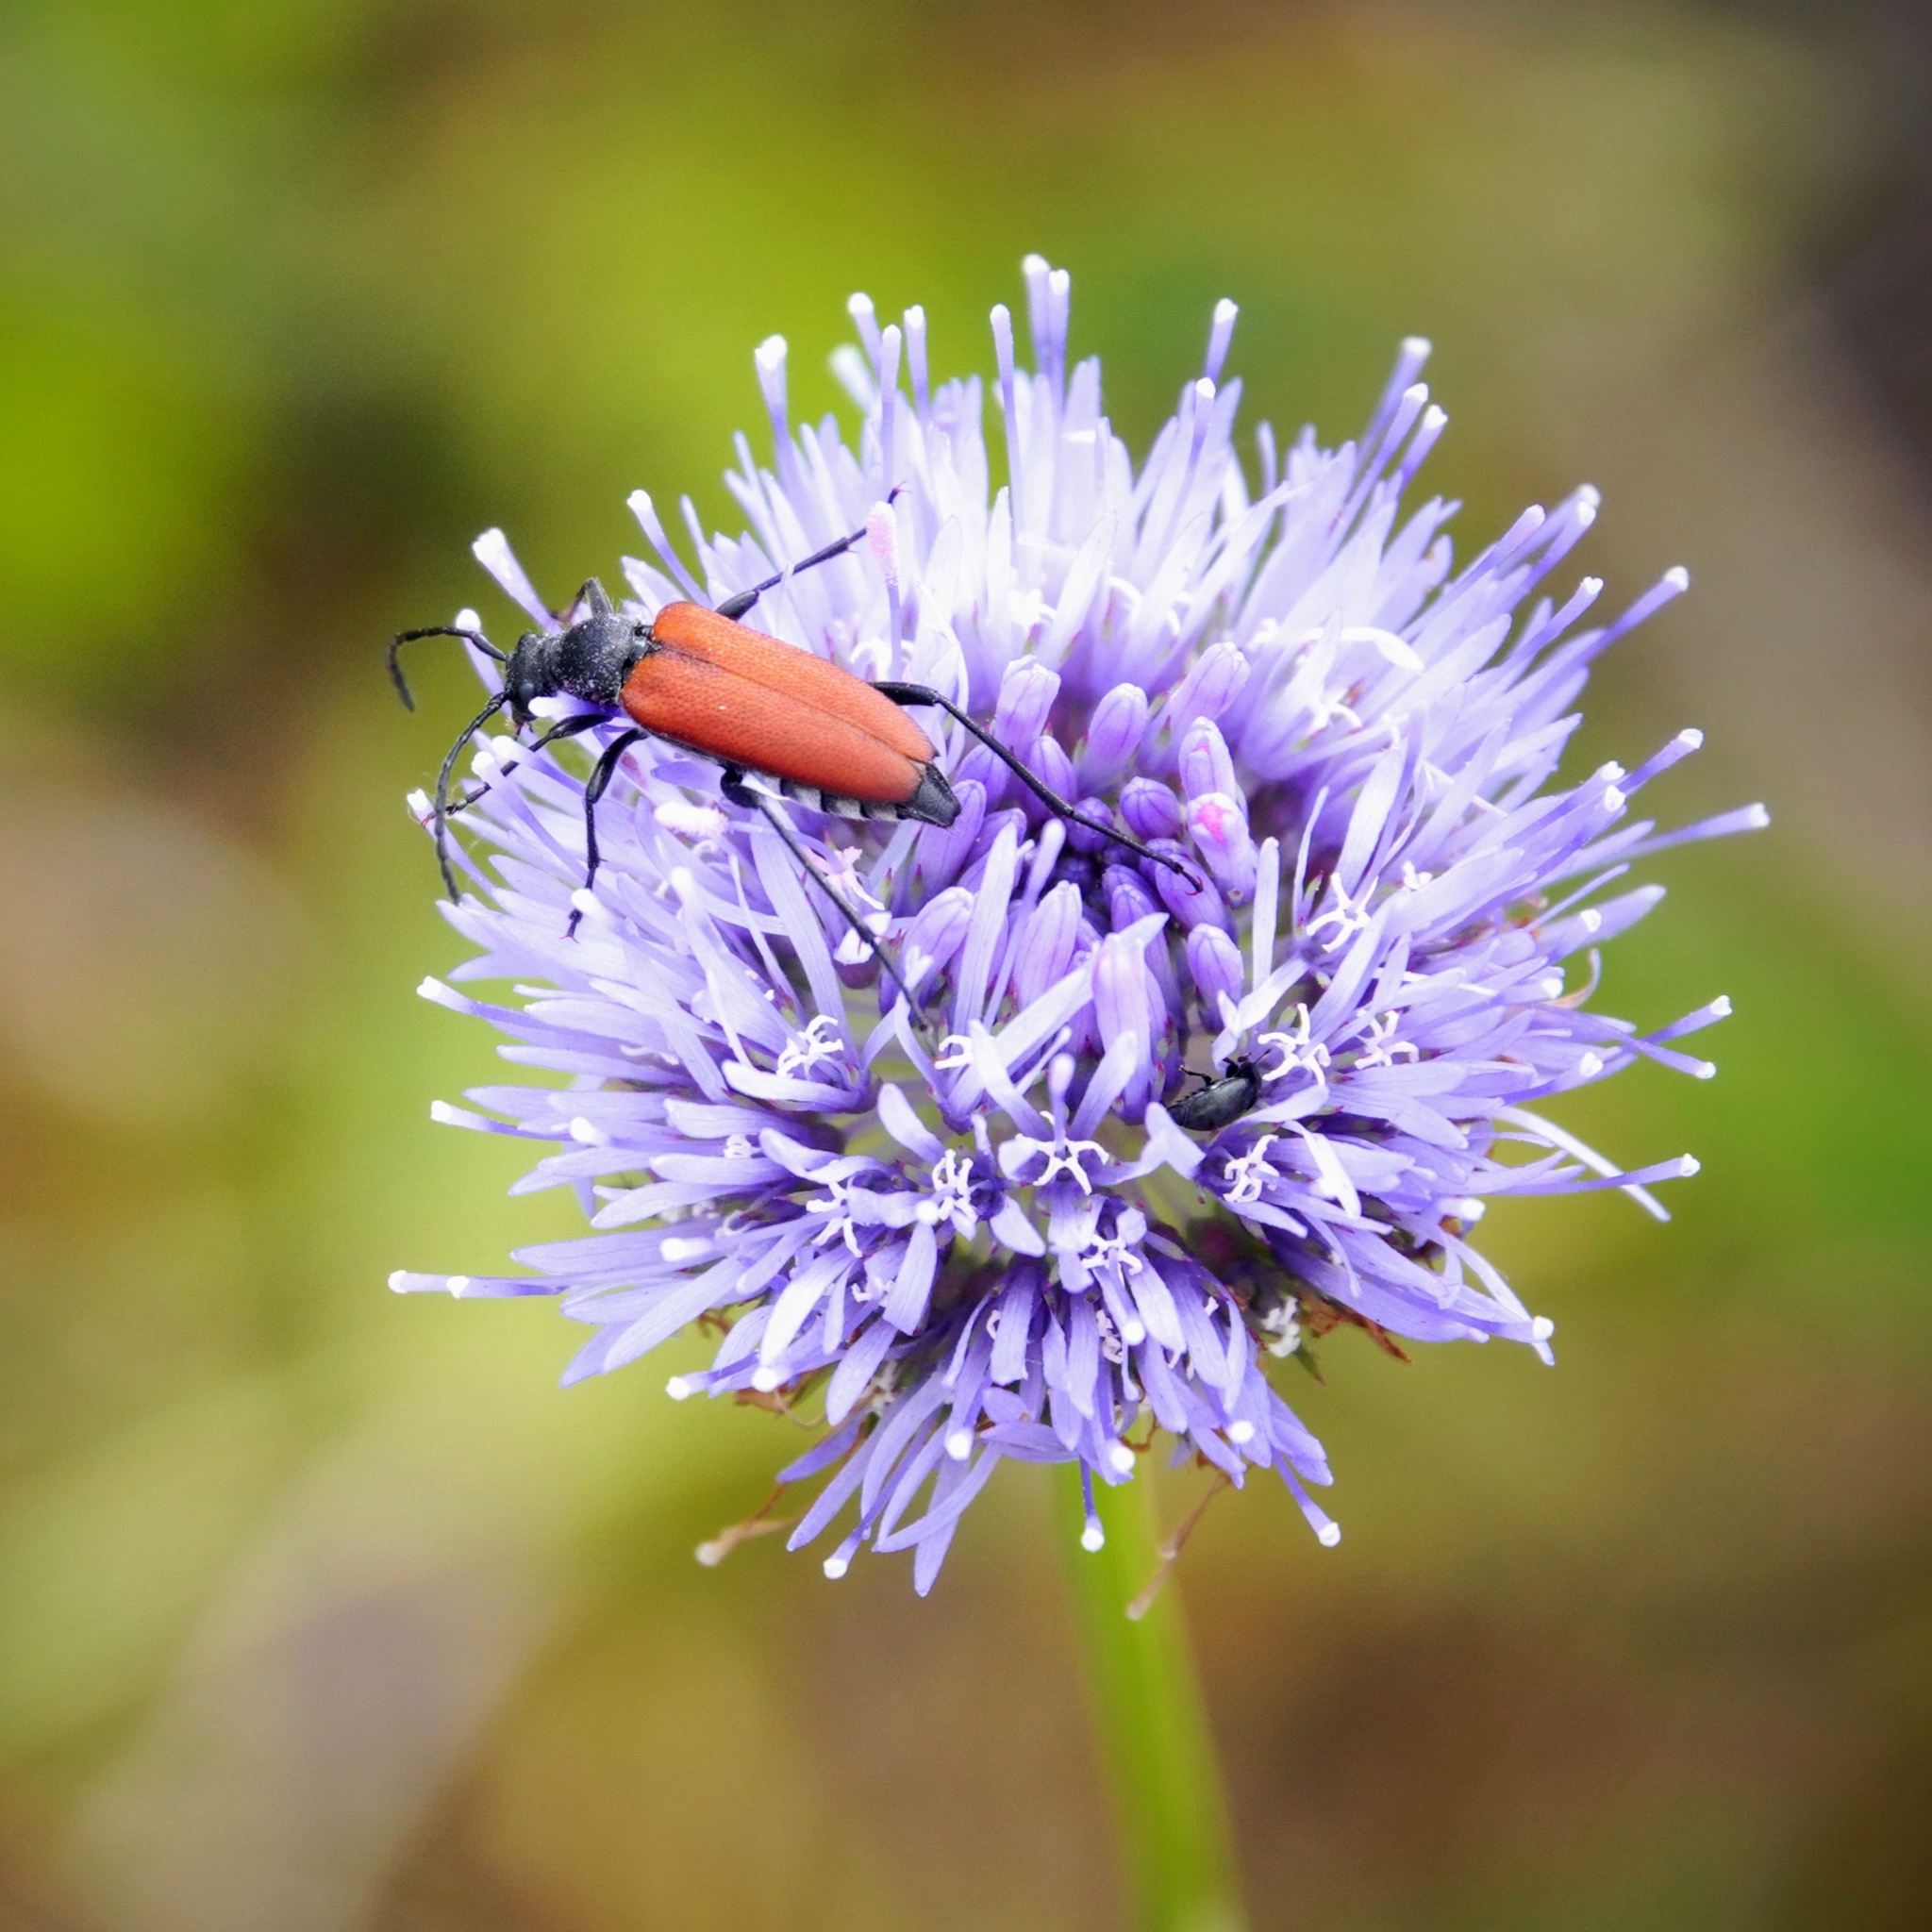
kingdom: Animalia
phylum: Arthropoda
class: Insecta
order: Coleoptera
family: Cerambycidae
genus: Anastrangalia
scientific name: Anastrangalia sanguinolenta
